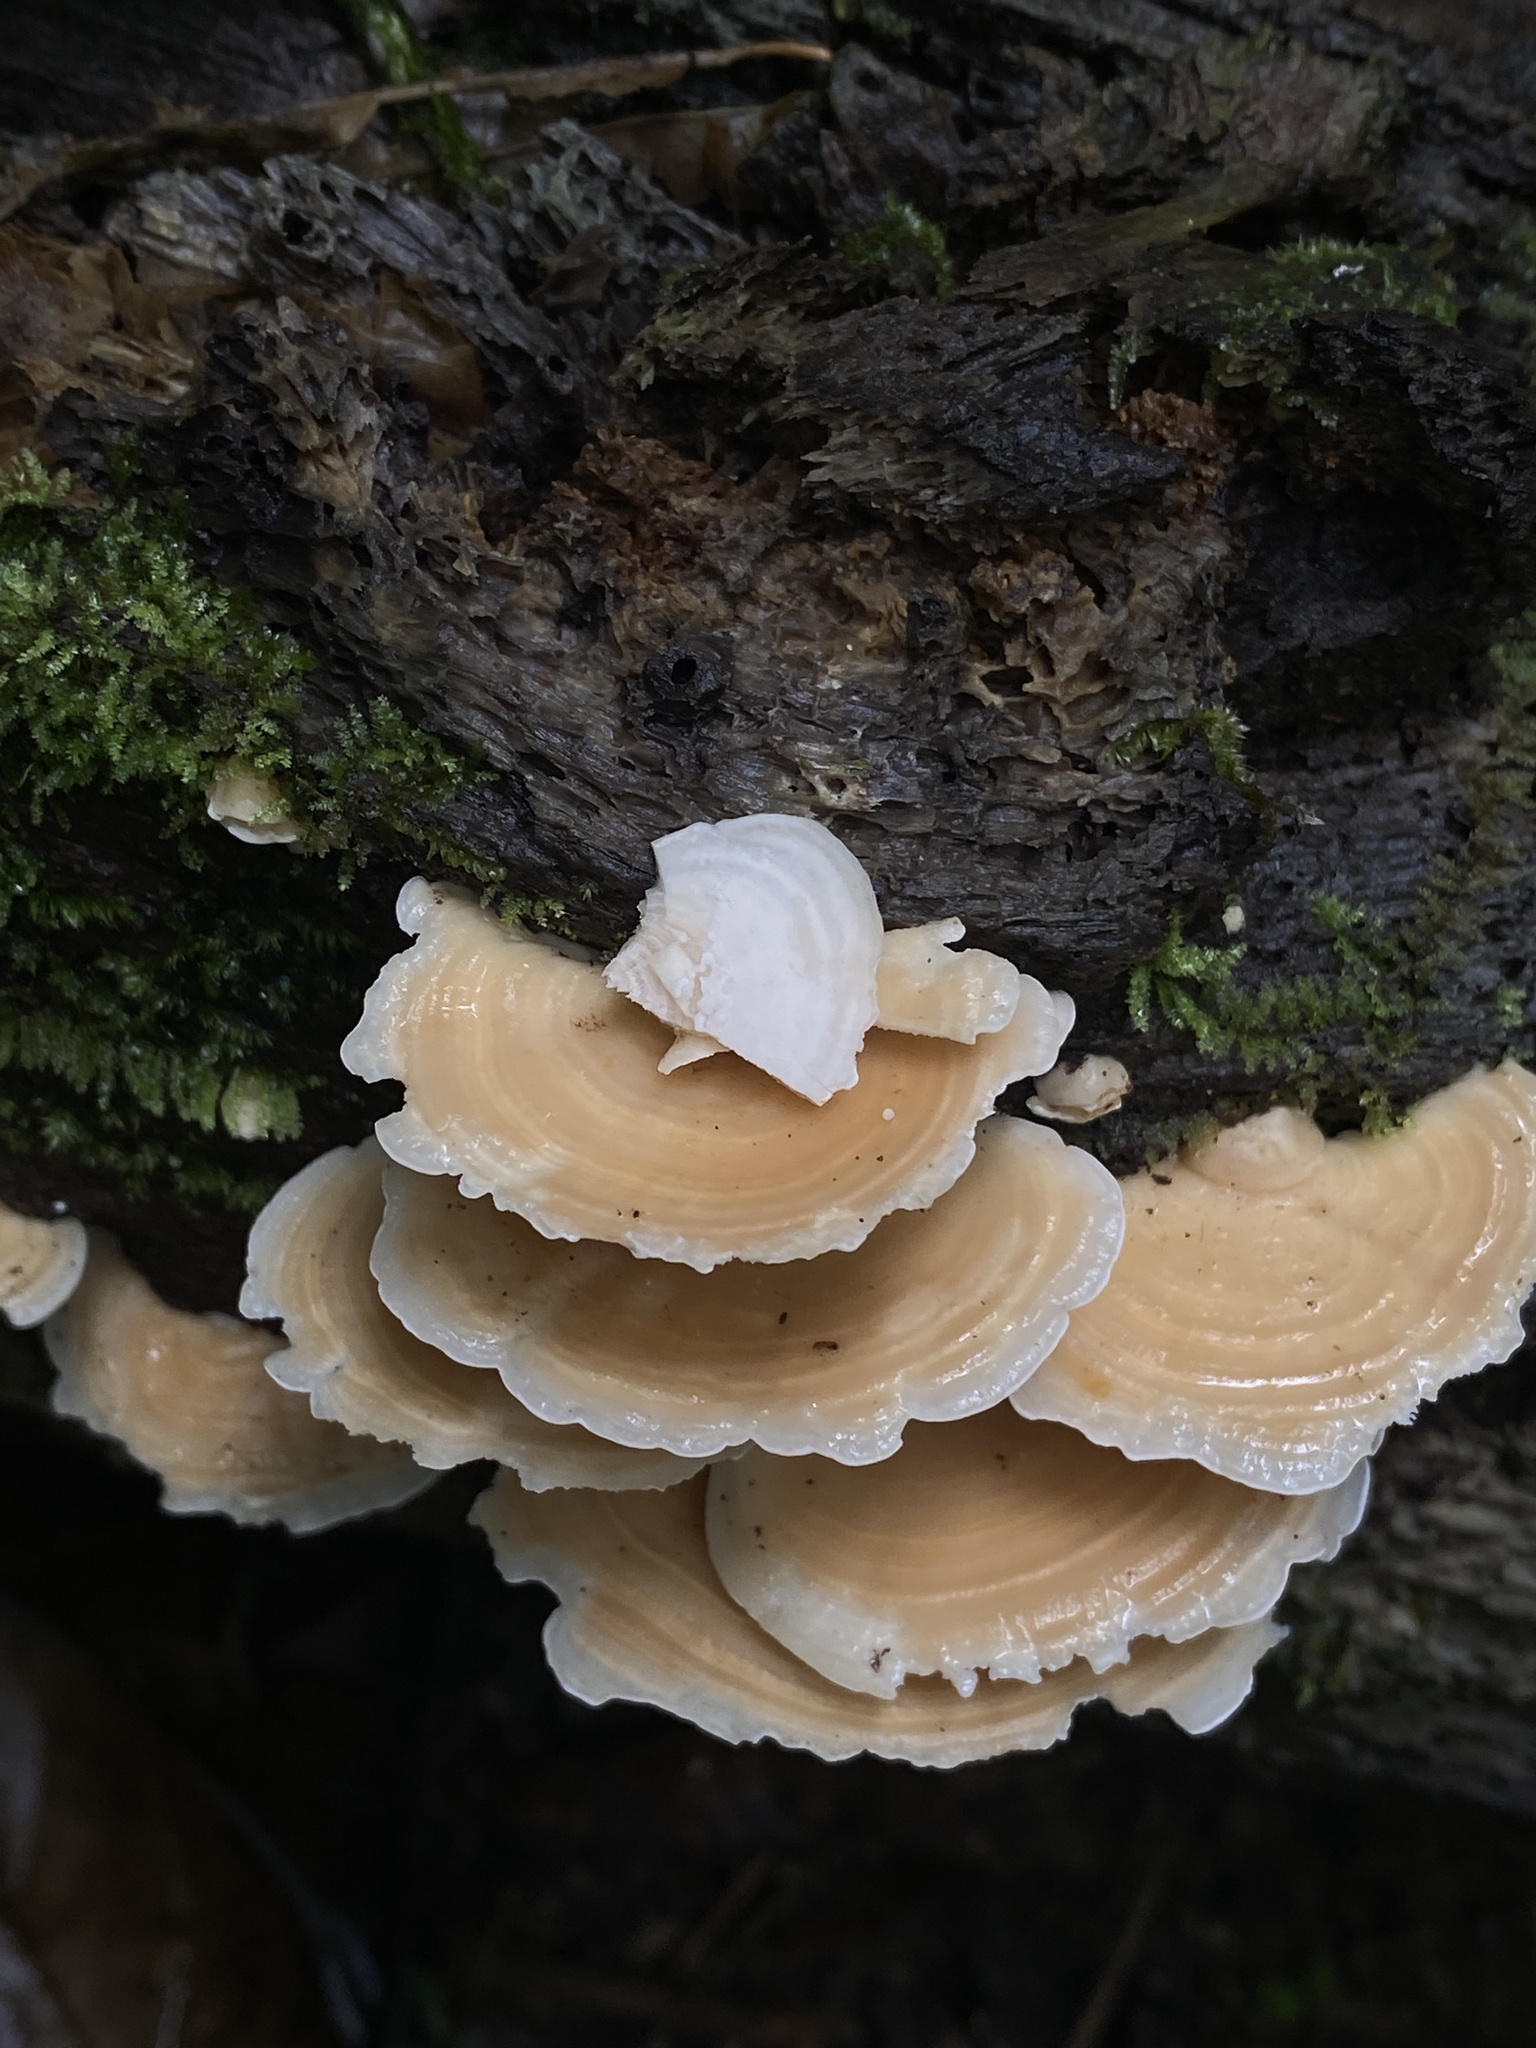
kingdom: Fungi
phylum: Basidiomycota
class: Agaricomycetes
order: Polyporales
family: Steccherinaceae
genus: Flaviporus
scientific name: Flaviporus liebmannii
